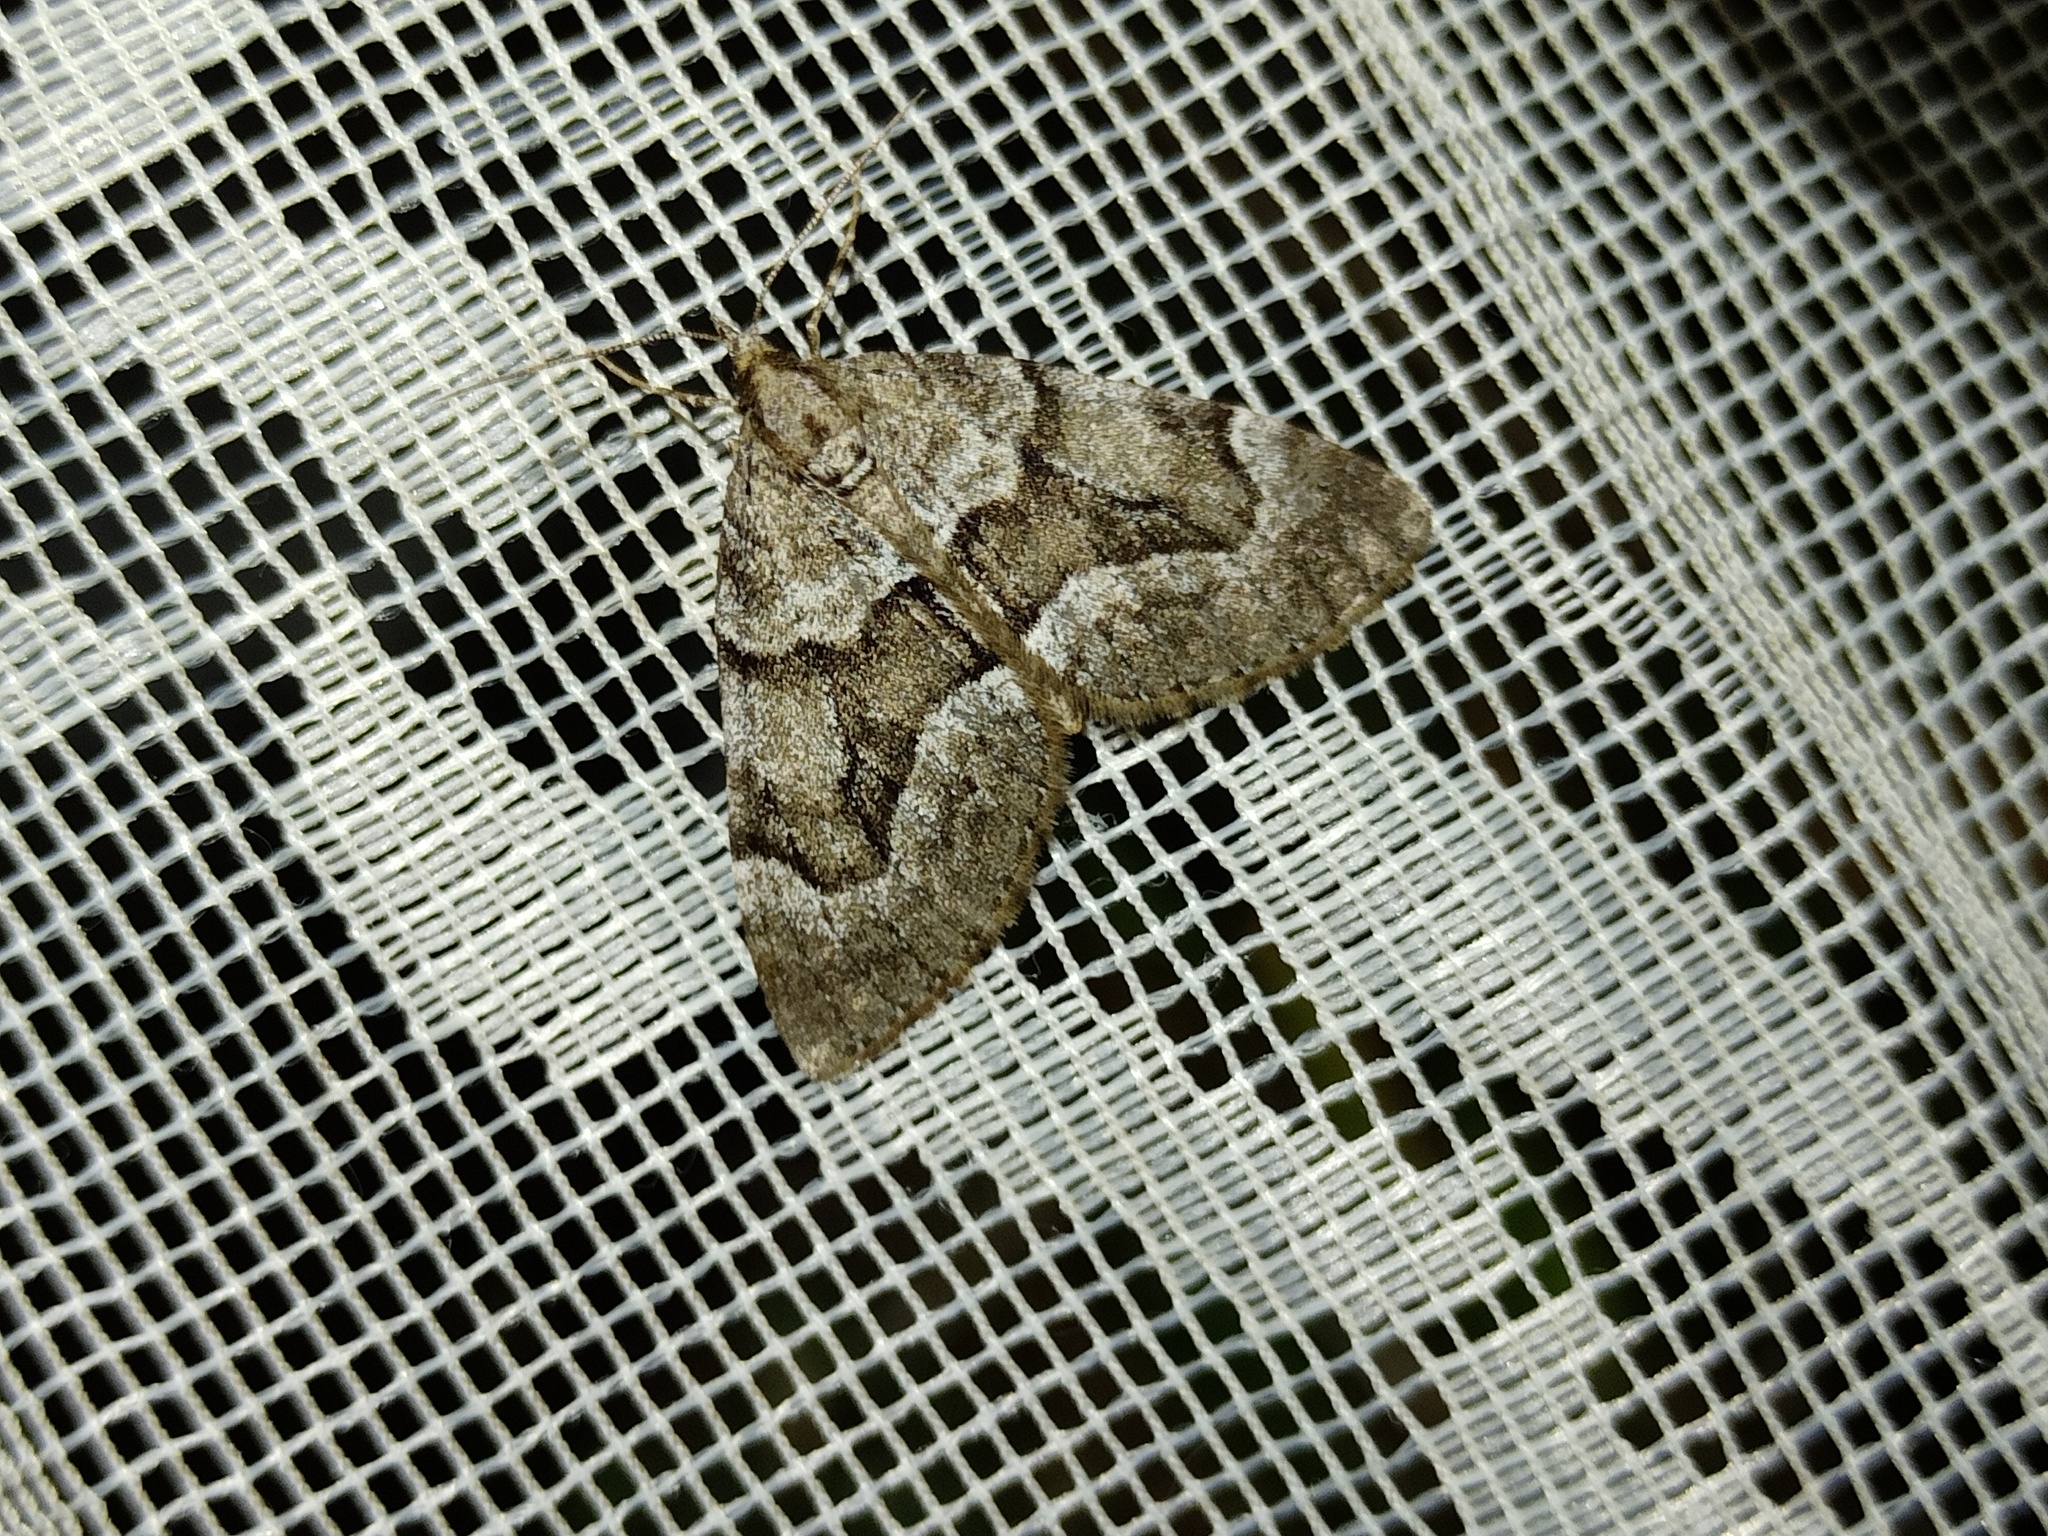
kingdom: Animalia
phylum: Arthropoda
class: Insecta
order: Lepidoptera
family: Geometridae
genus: Lobophorodes
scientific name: Lobophorodes
